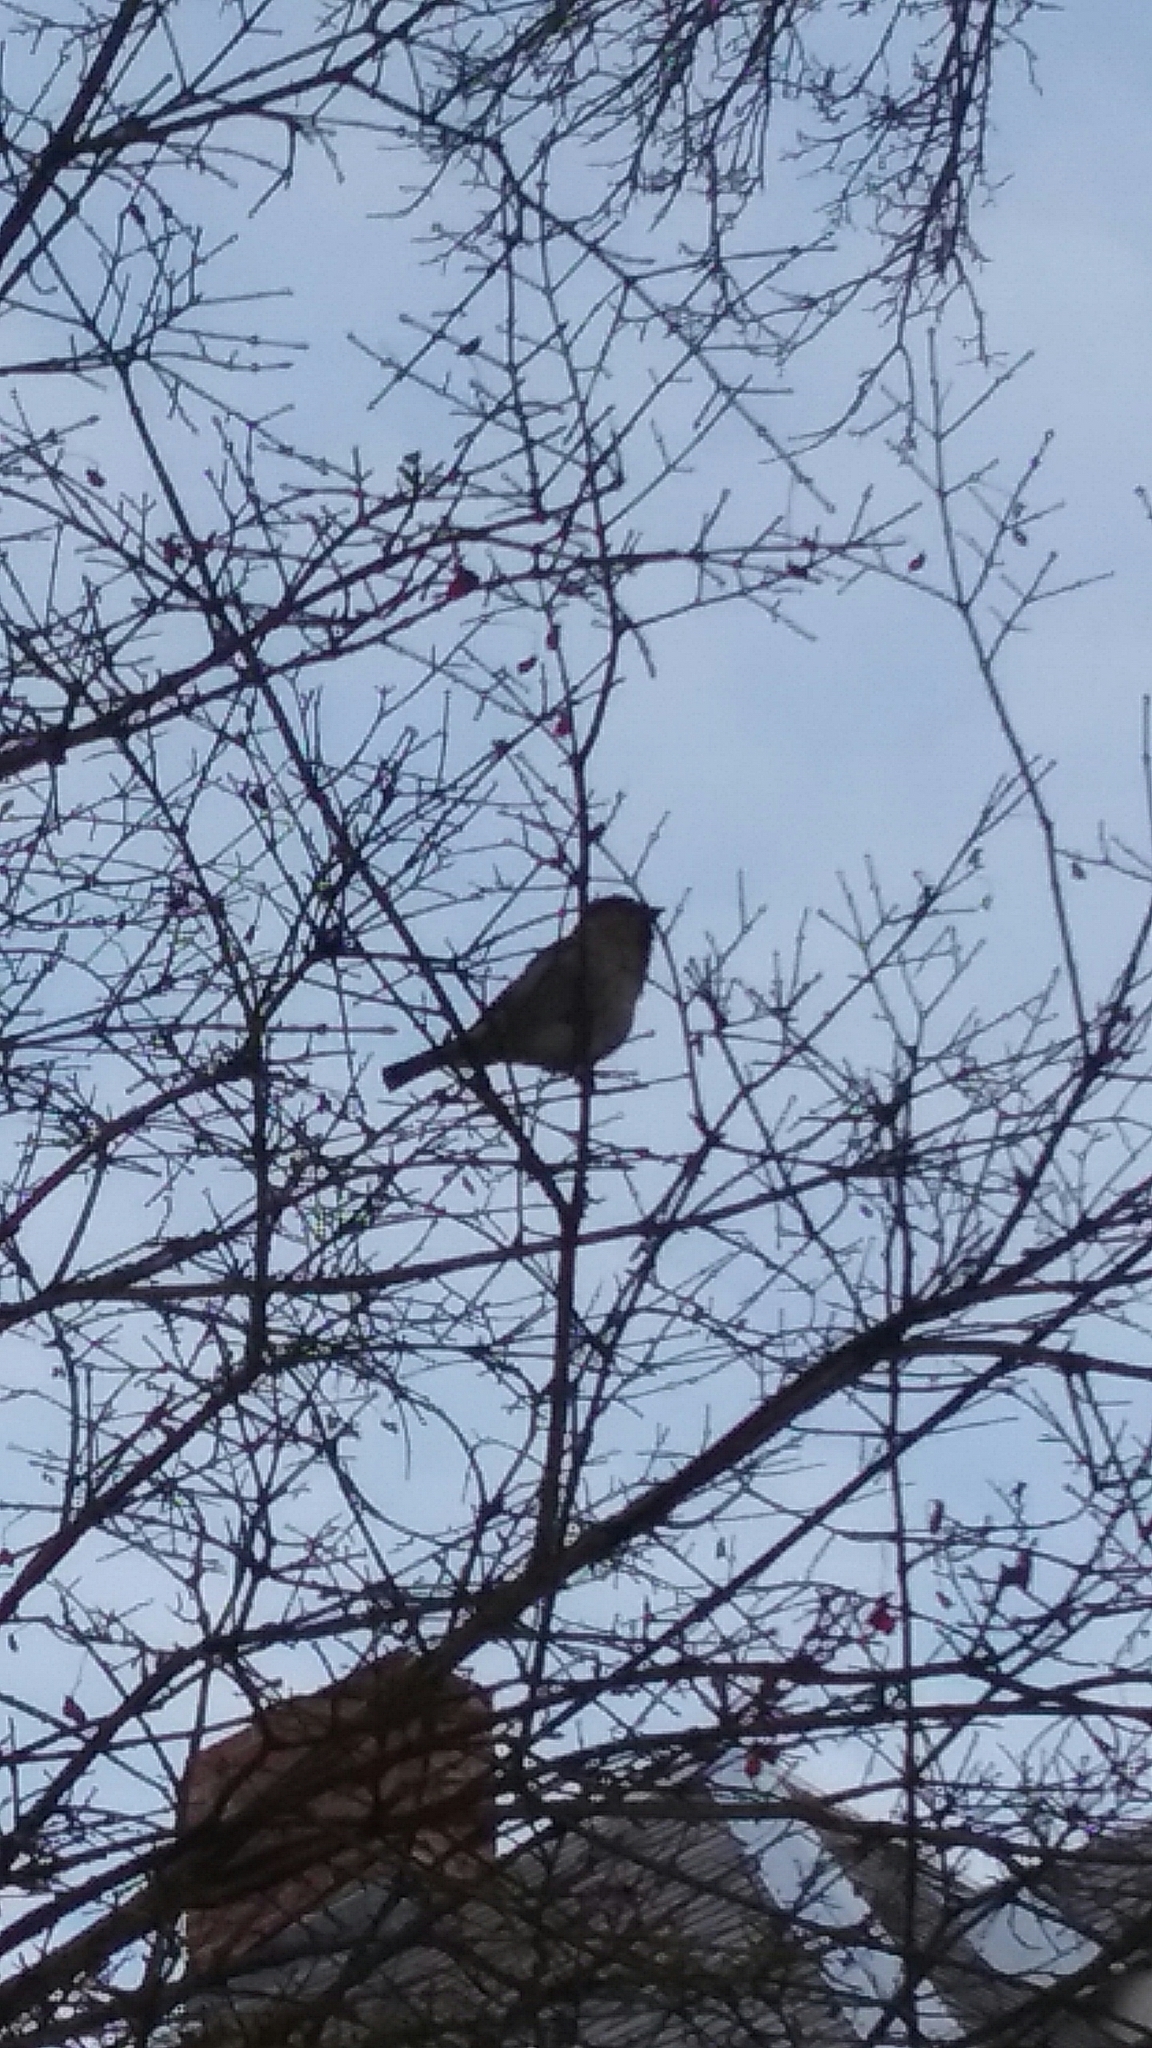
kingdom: Animalia
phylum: Chordata
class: Aves
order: Passeriformes
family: Passeridae
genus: Passer
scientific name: Passer domesticus
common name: House sparrow
